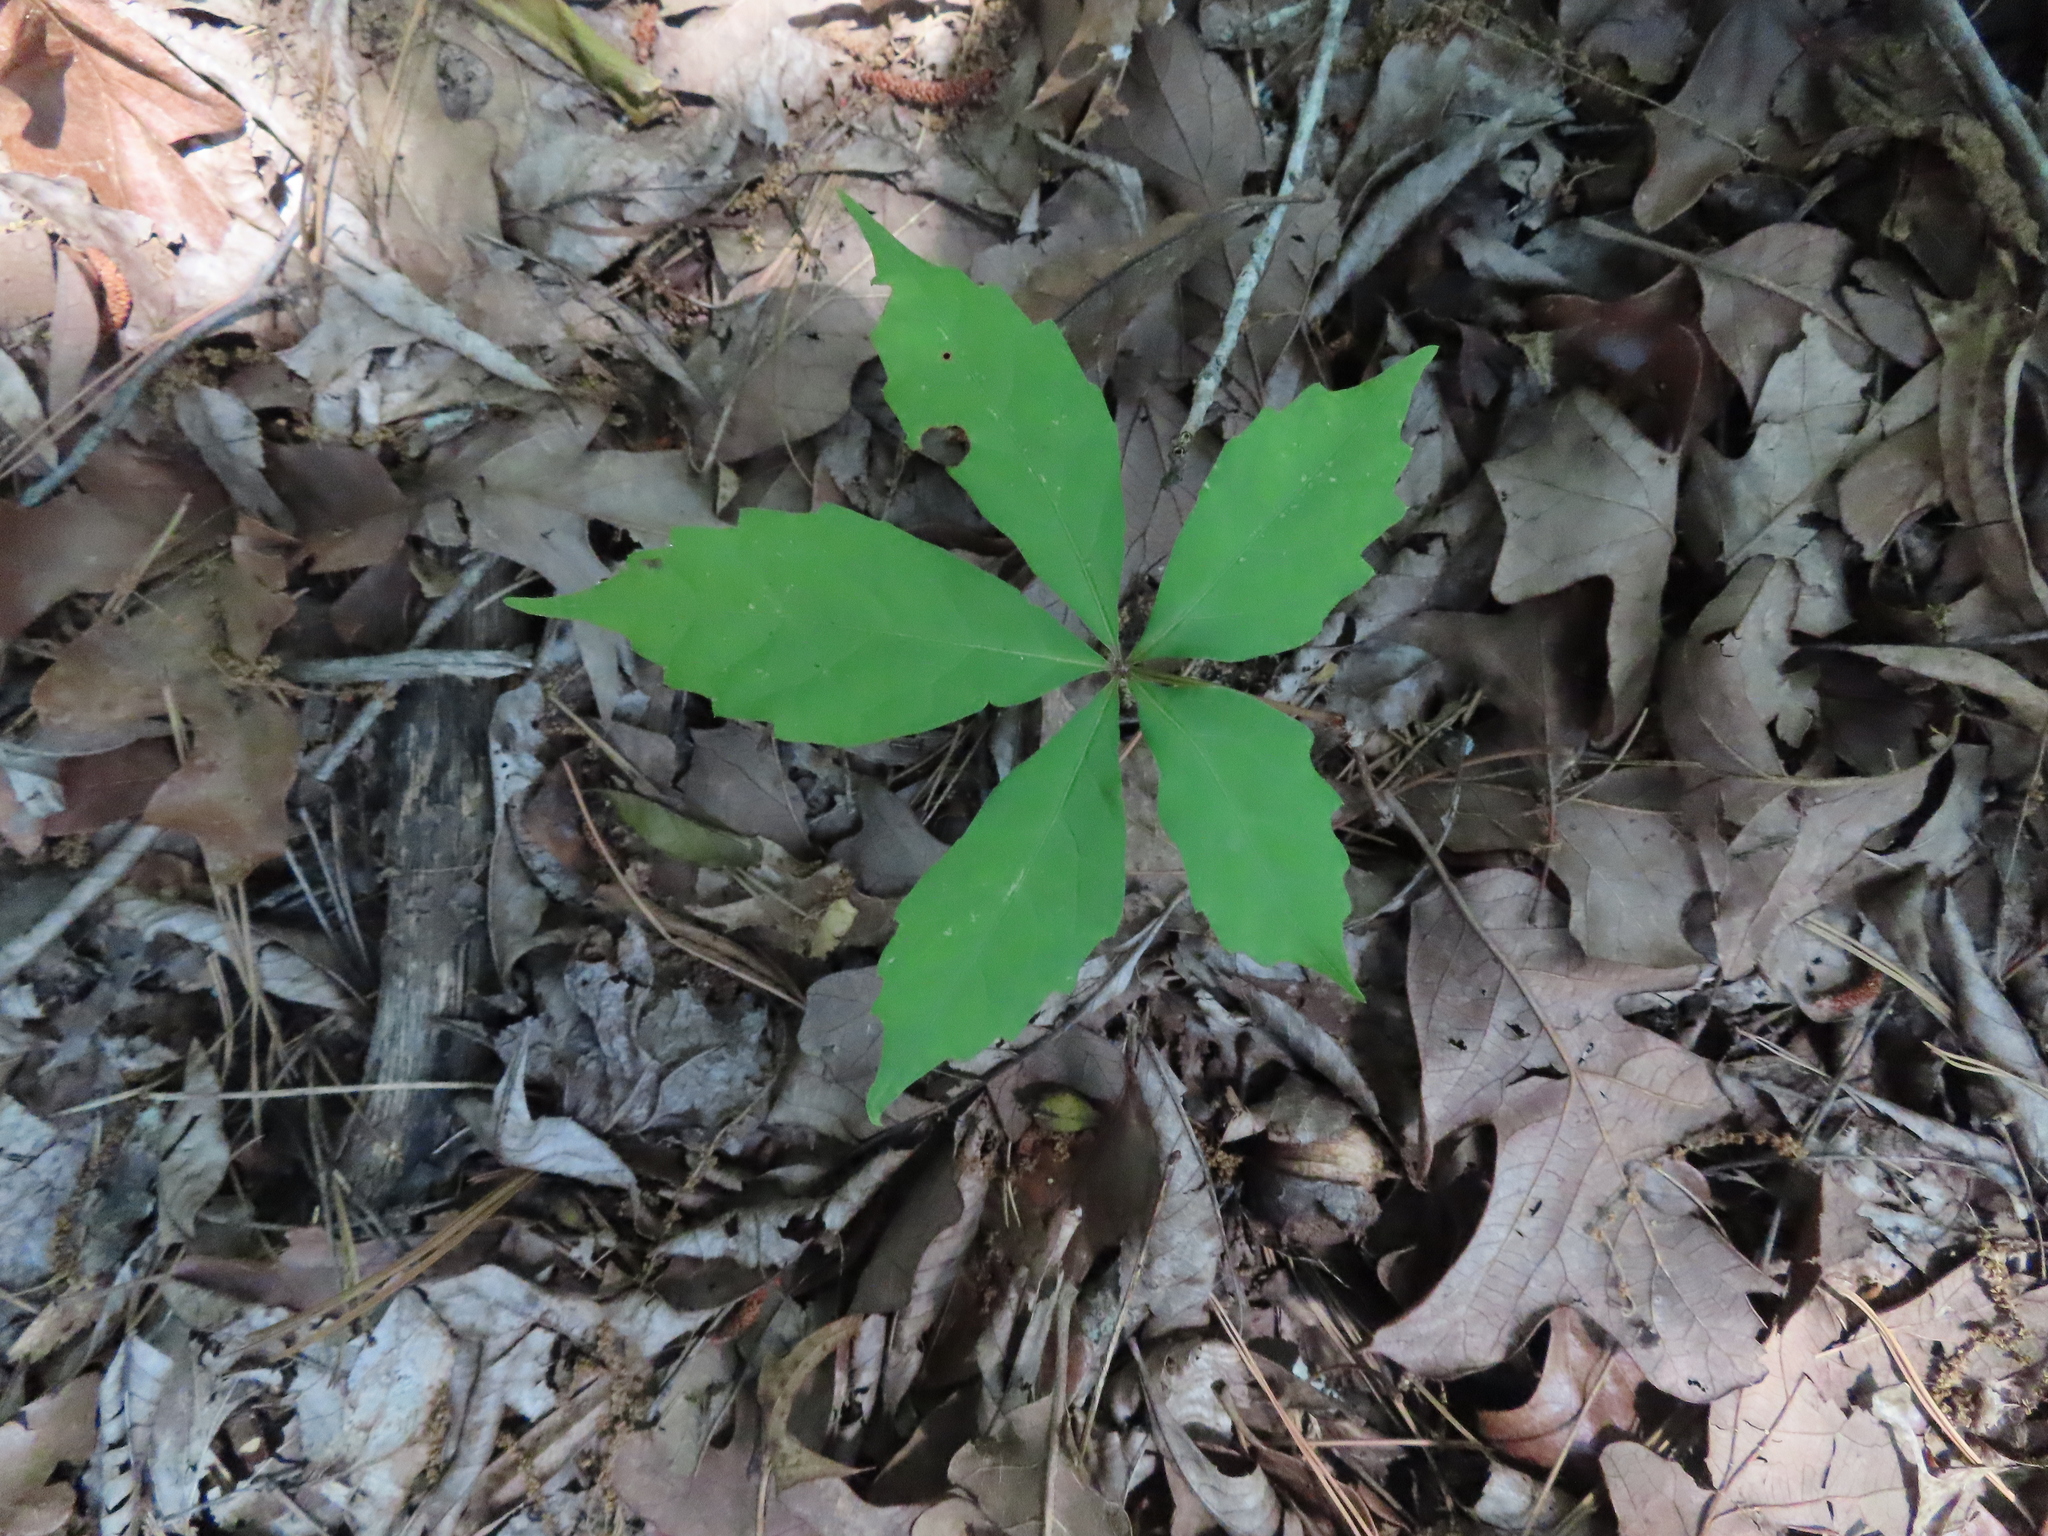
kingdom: Plantae
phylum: Tracheophyta
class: Magnoliopsida
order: Vitales
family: Vitaceae
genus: Parthenocissus
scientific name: Parthenocissus quinquefolia
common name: Virginia-creeper
